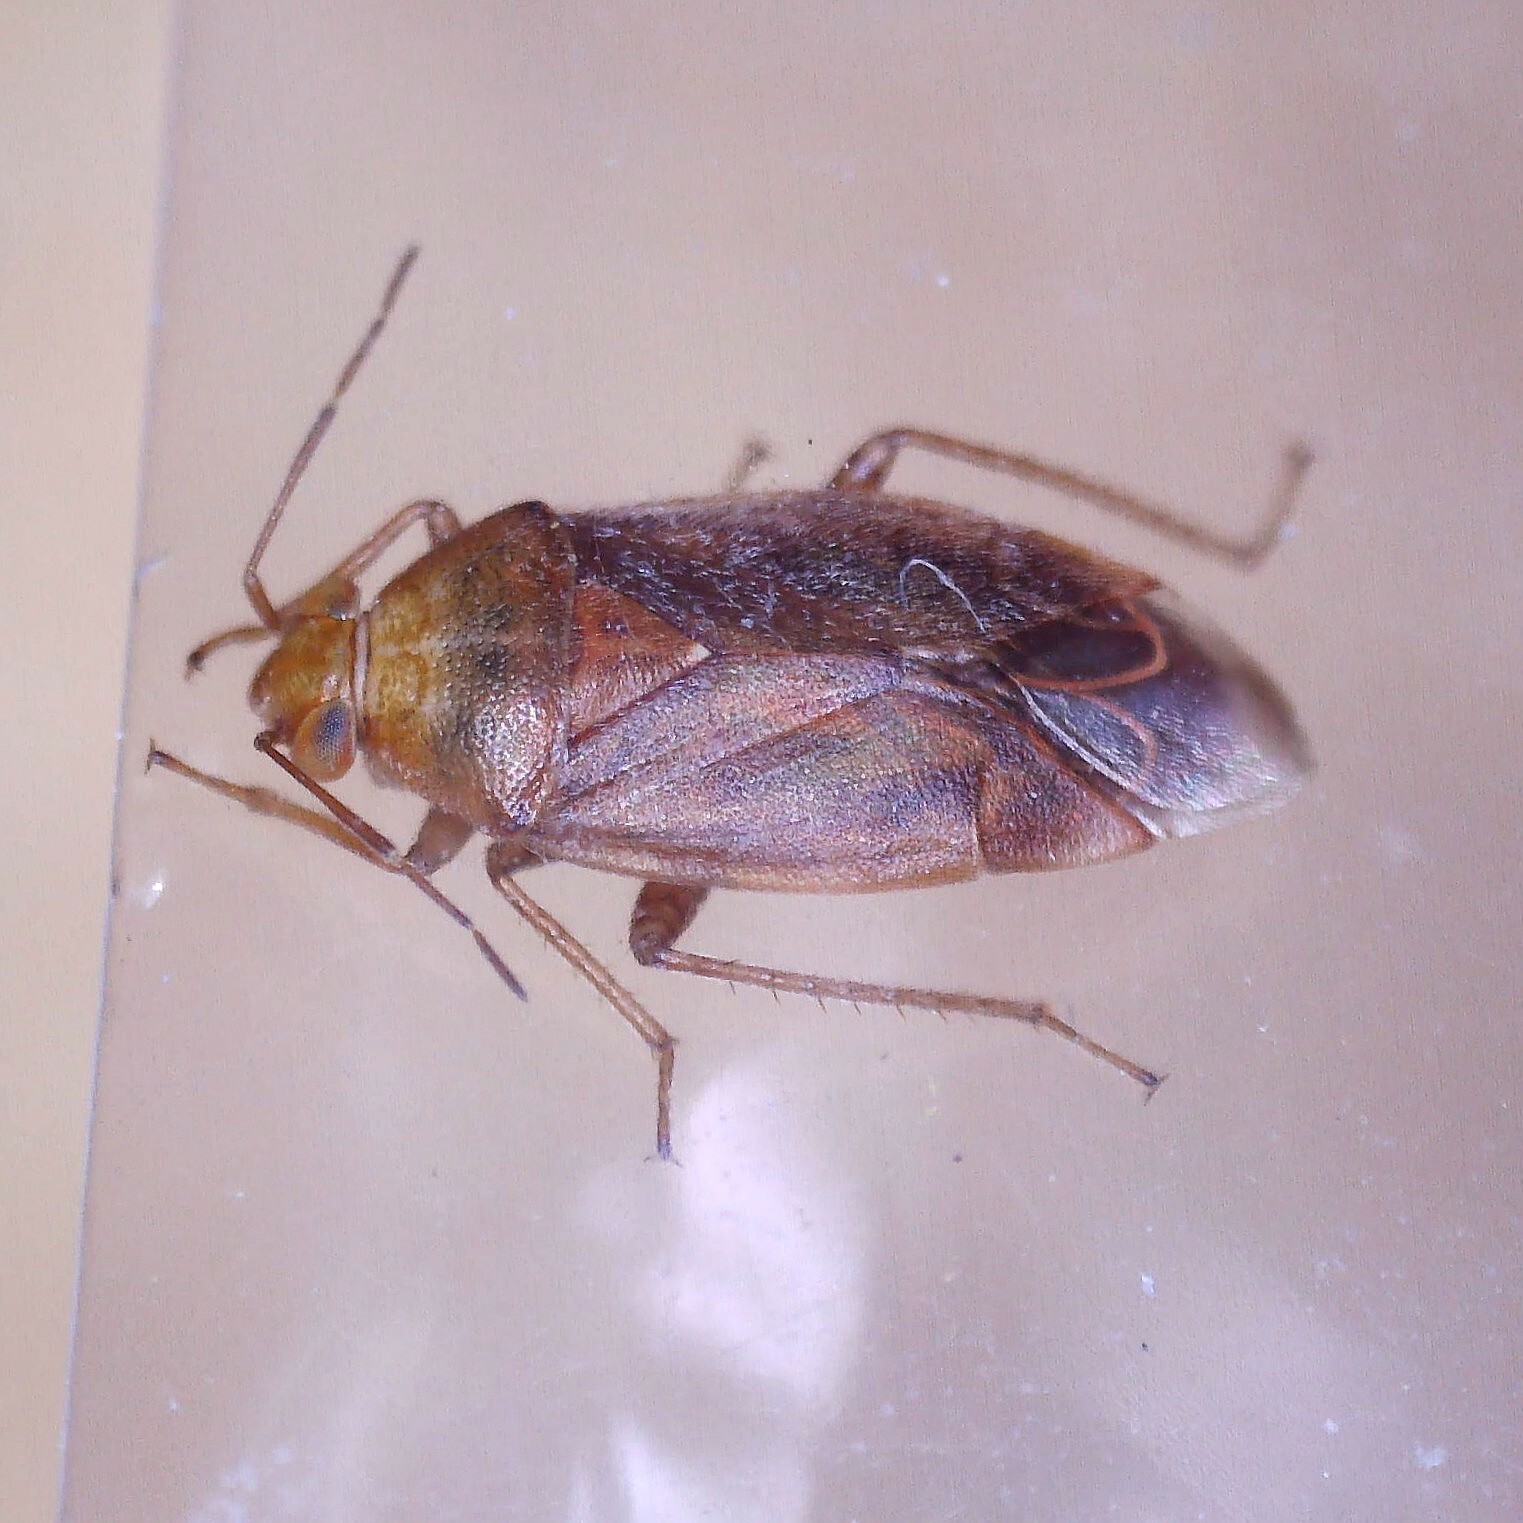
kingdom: Animalia
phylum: Arthropoda
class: Insecta
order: Hemiptera
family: Miridae
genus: Agnocoris
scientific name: Agnocoris reclairei
